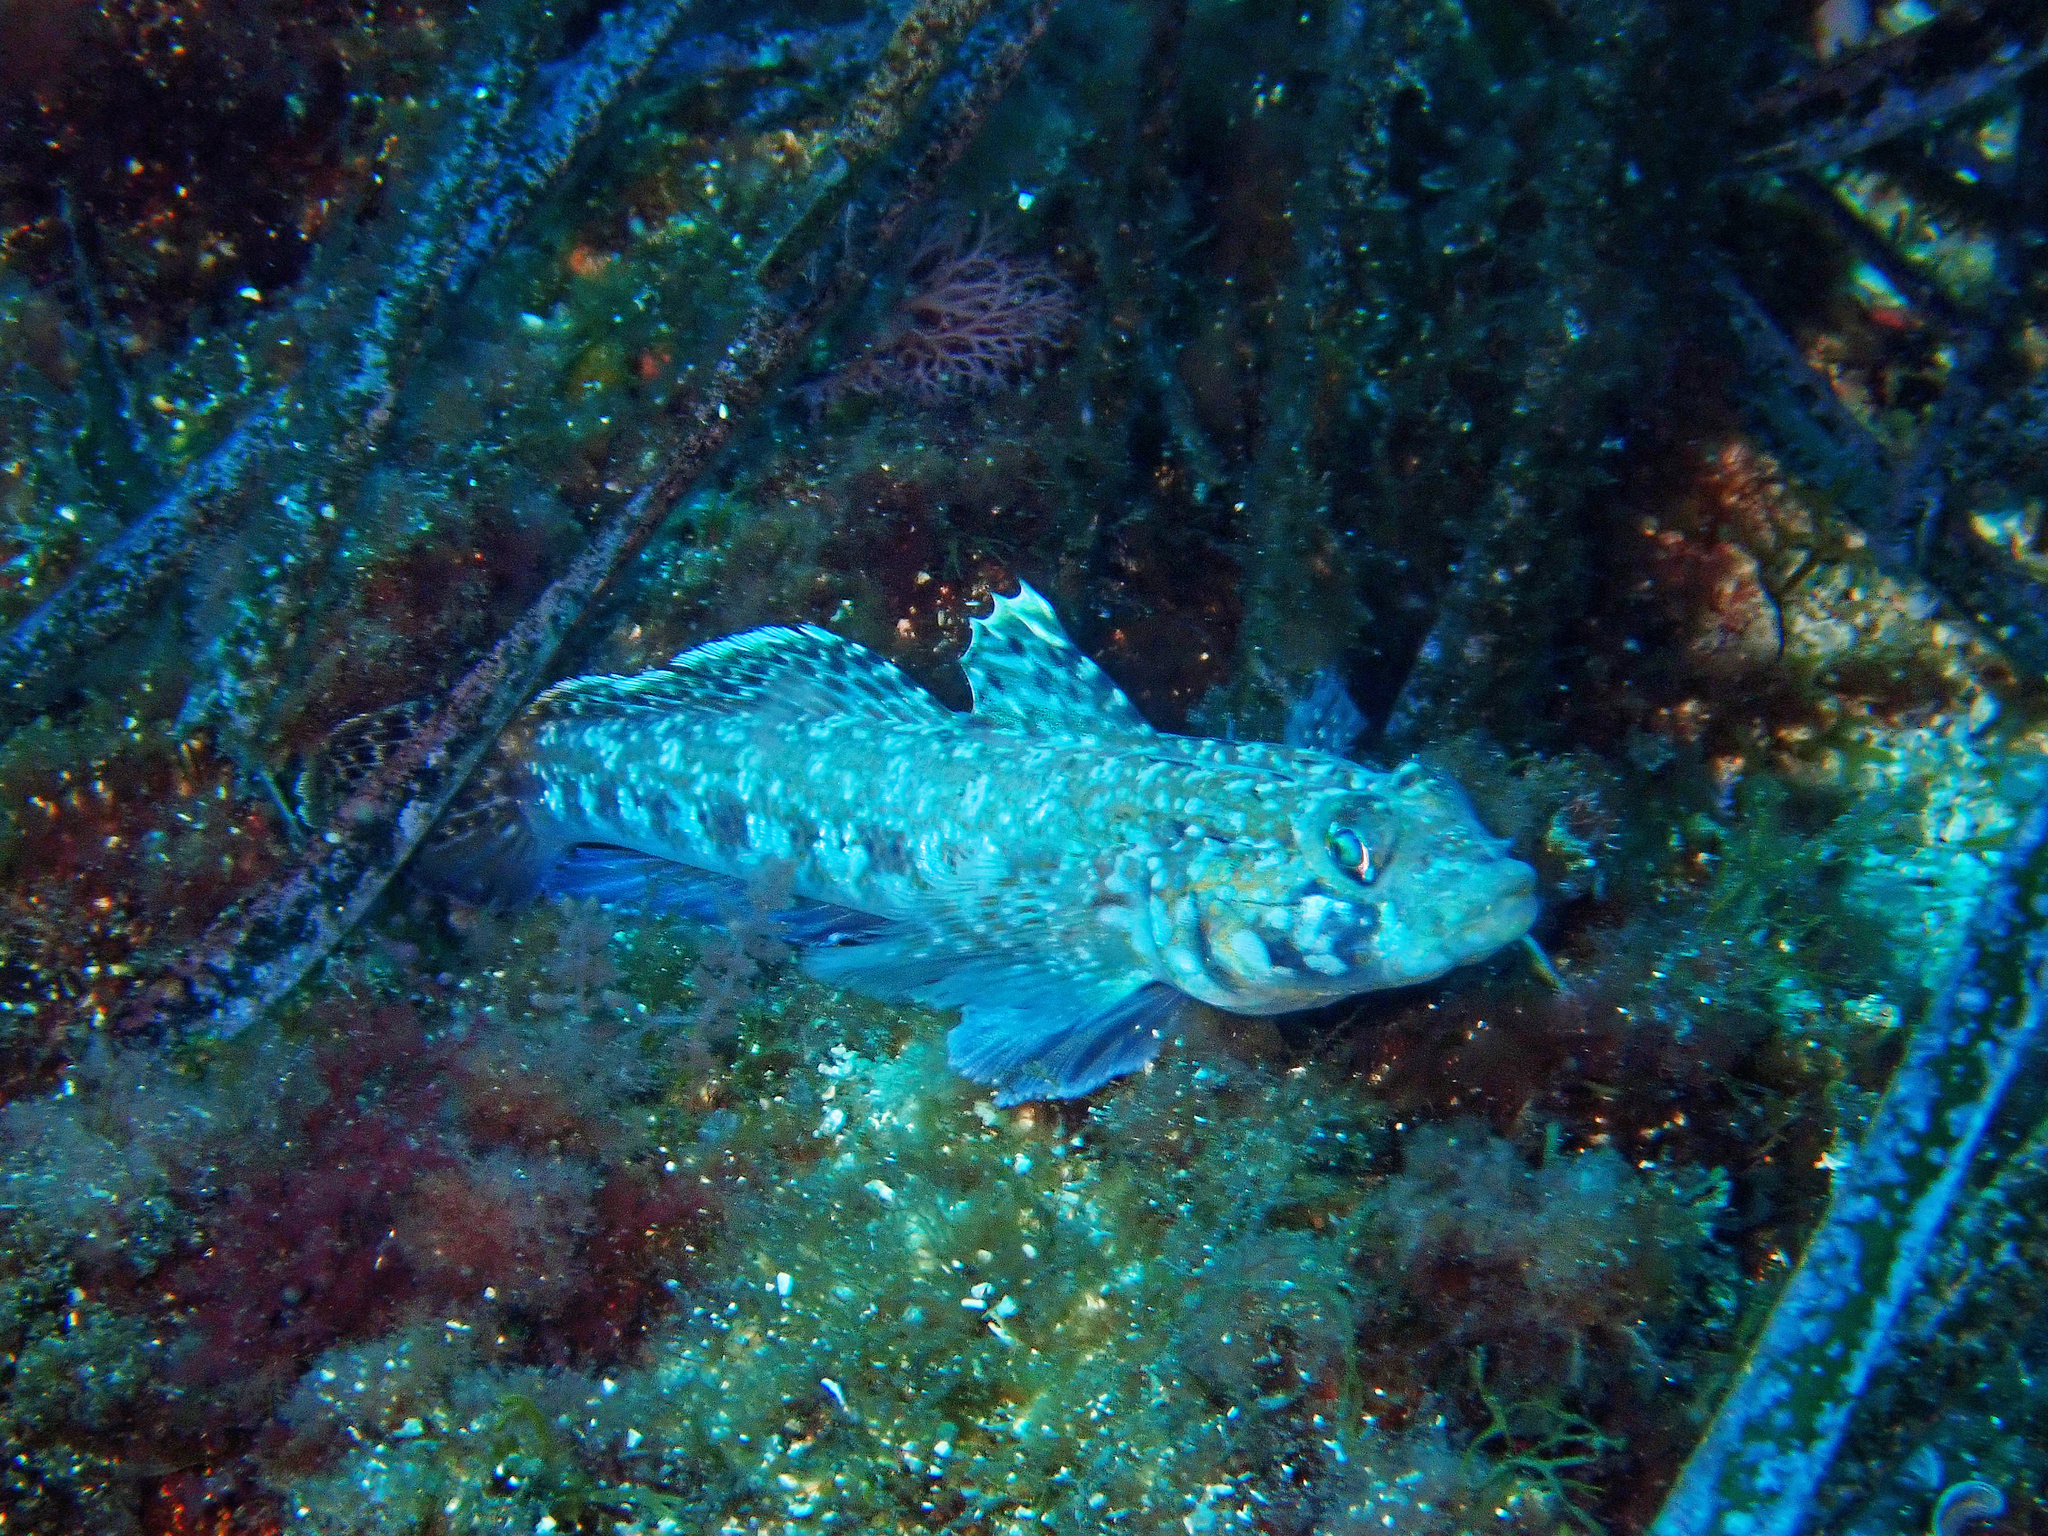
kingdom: Animalia
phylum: Chordata
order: Perciformes
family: Gobiidae
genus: Gobius
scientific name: Gobius geniporus
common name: Slender goby
